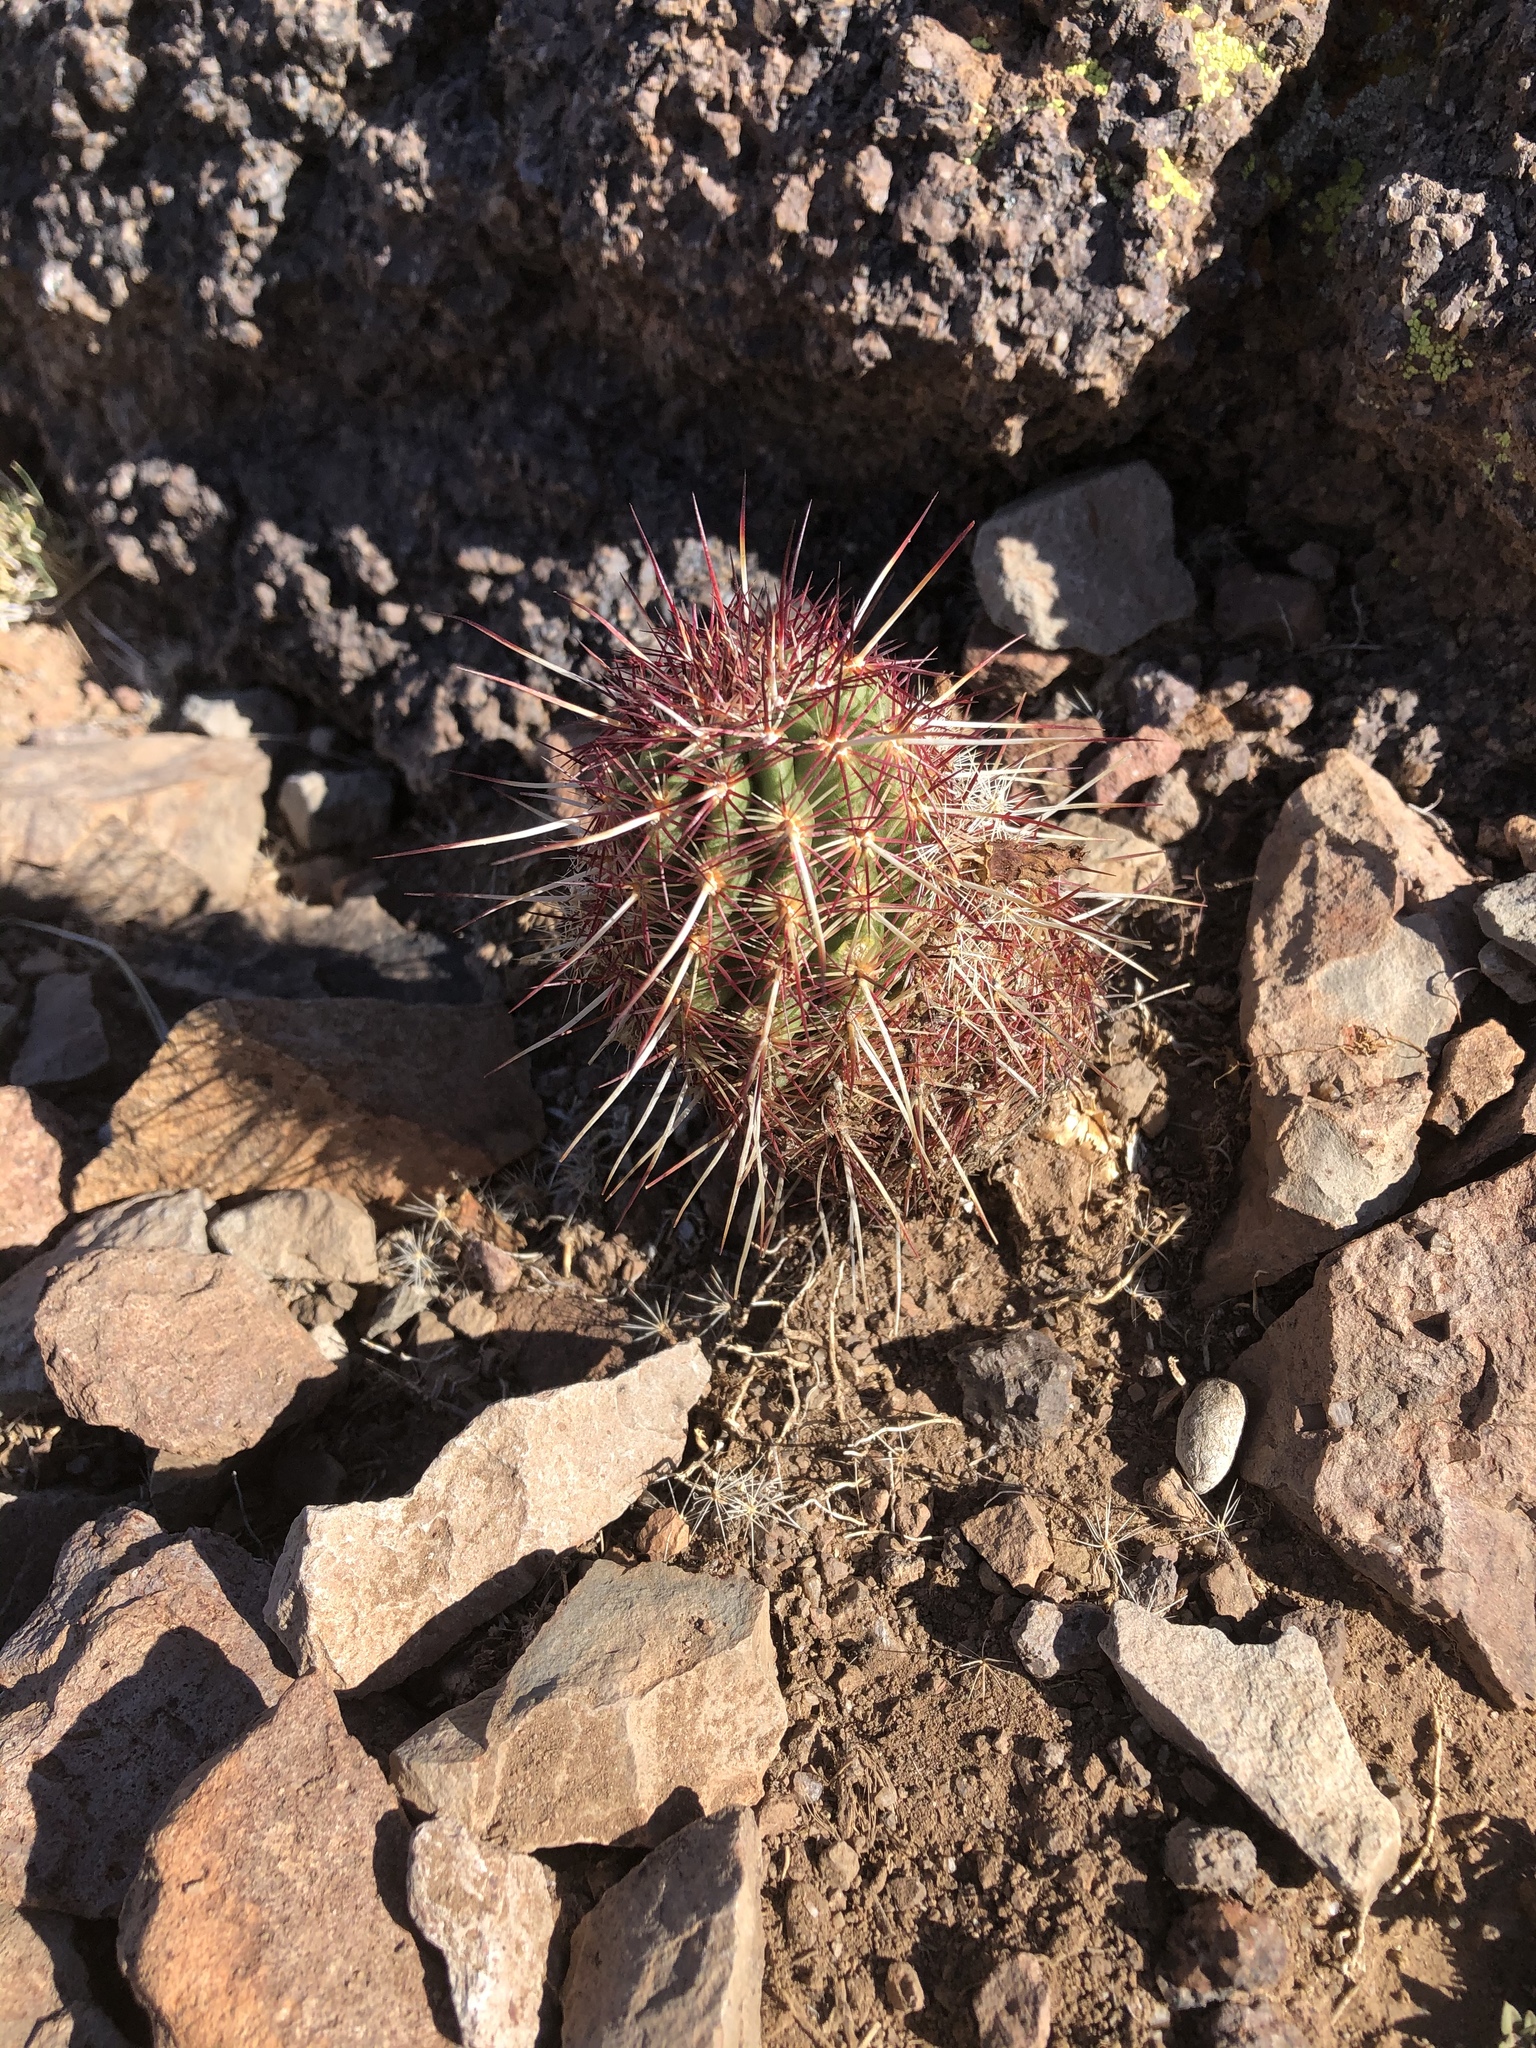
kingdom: Plantae
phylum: Tracheophyta
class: Magnoliopsida
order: Caryophyllales
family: Cactaceae
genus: Echinocereus
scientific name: Echinocereus viridiflorus
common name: Nylon hedgehog cactus
